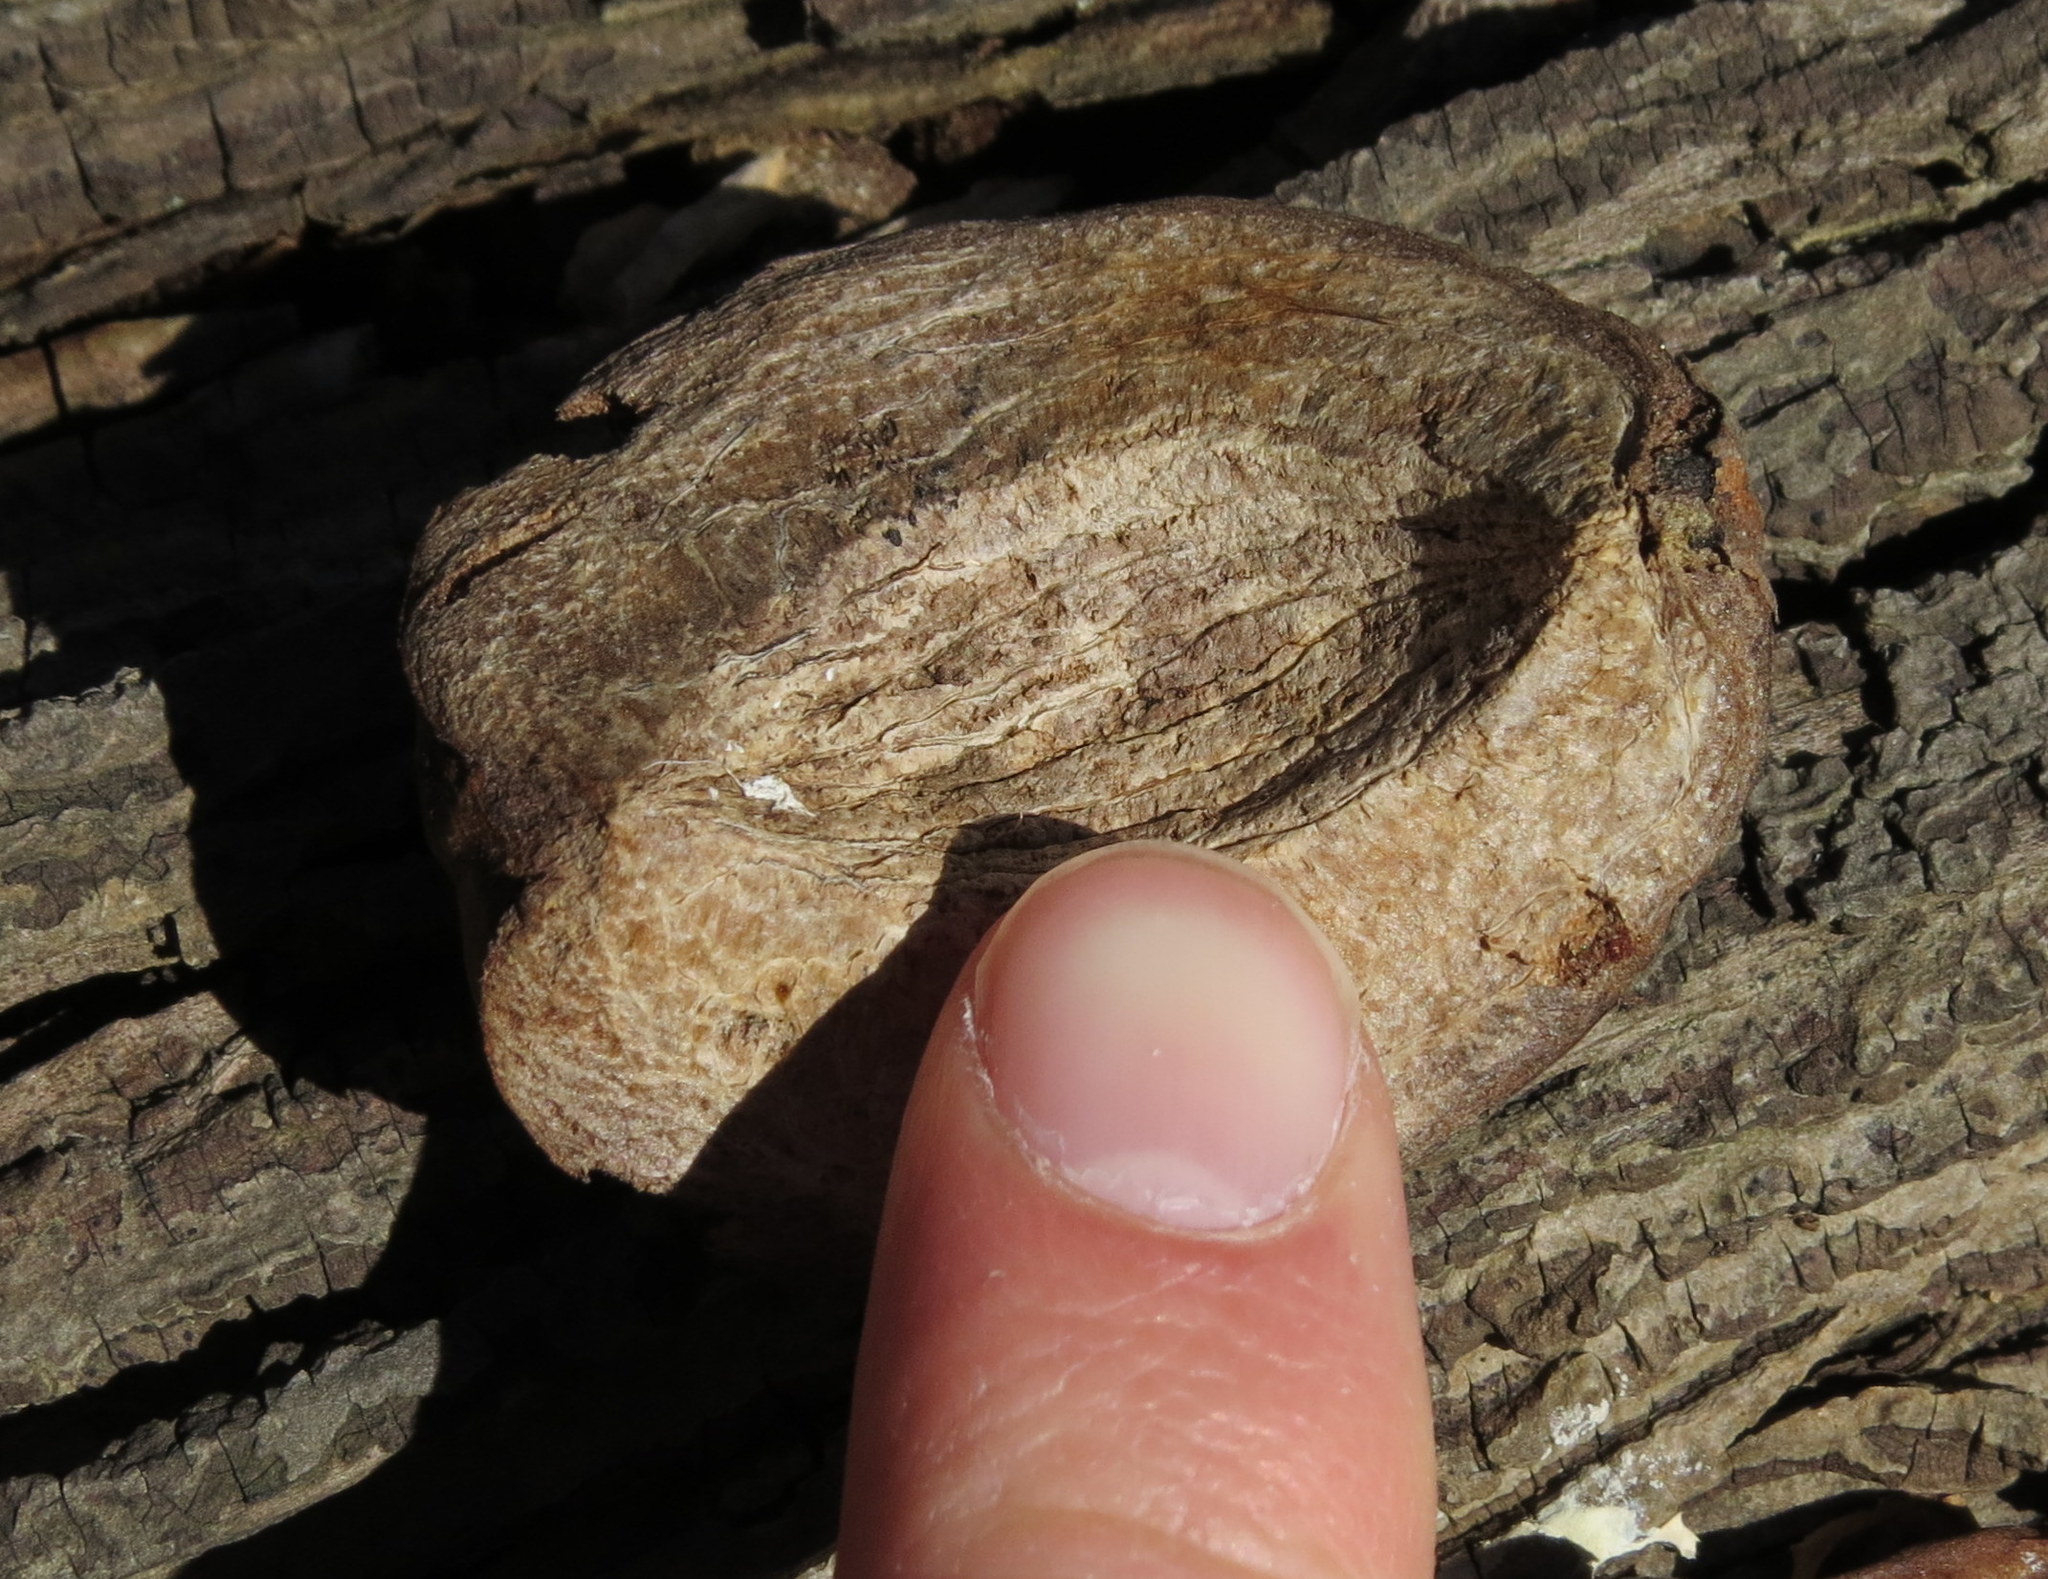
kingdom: Plantae
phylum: Tracheophyta
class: Magnoliopsida
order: Fagales
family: Juglandaceae
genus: Carya
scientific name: Carya
